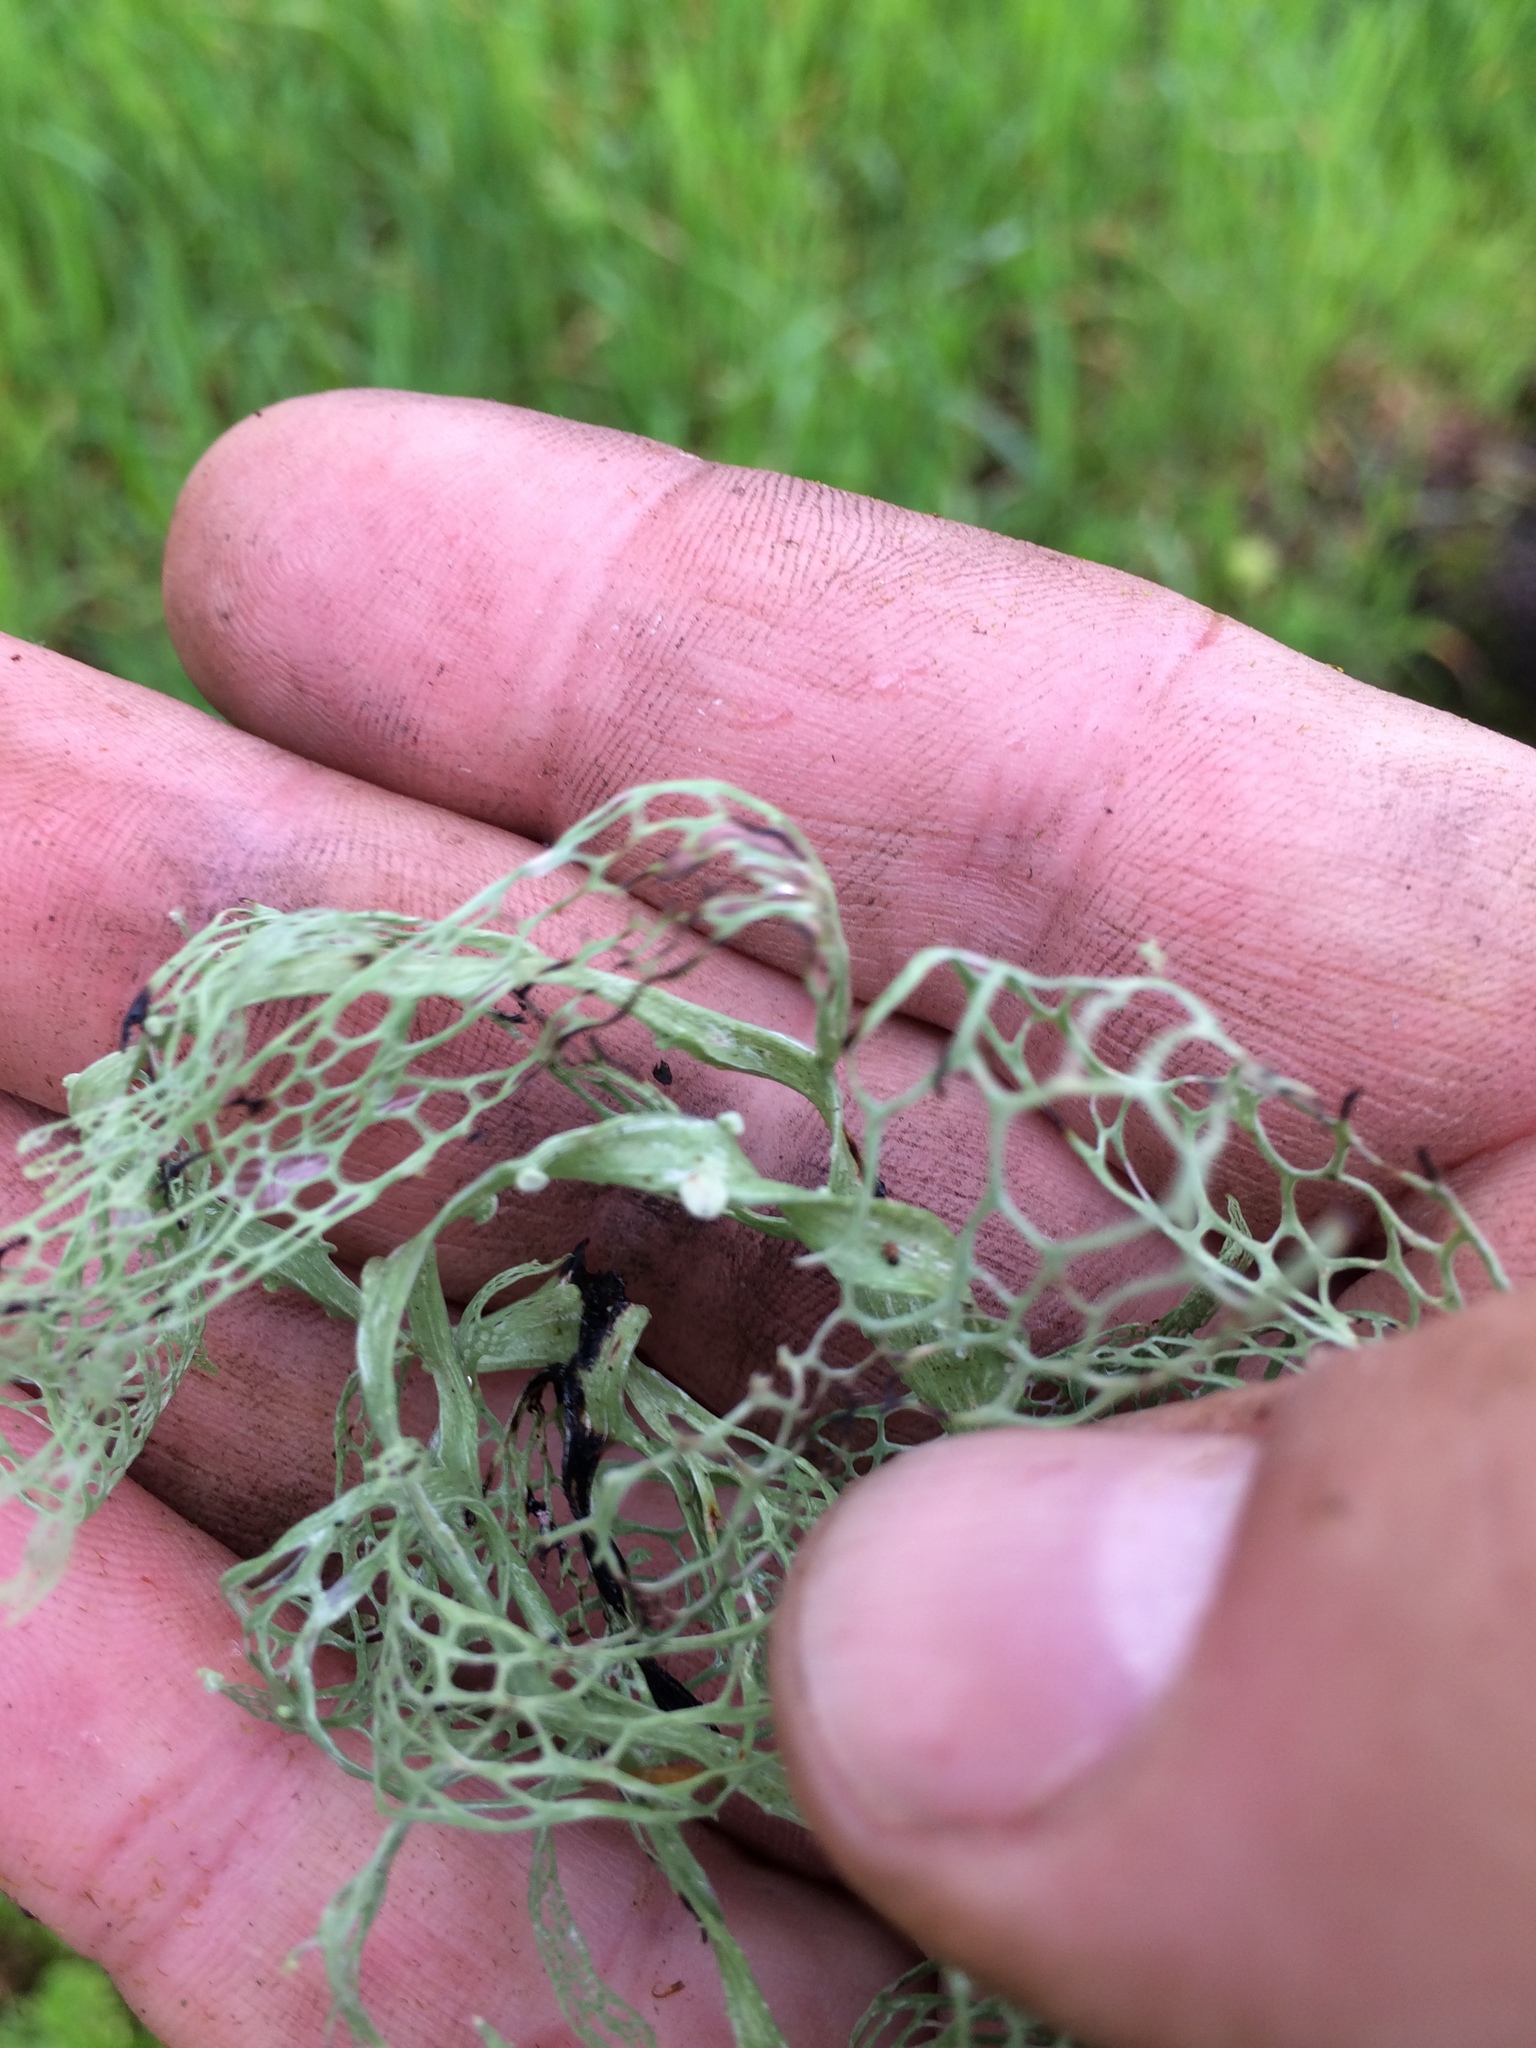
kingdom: Fungi
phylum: Ascomycota
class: Lecanoromycetes
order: Lecanorales
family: Ramalinaceae
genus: Ramalina
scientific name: Ramalina menziesii
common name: Lace lichen
